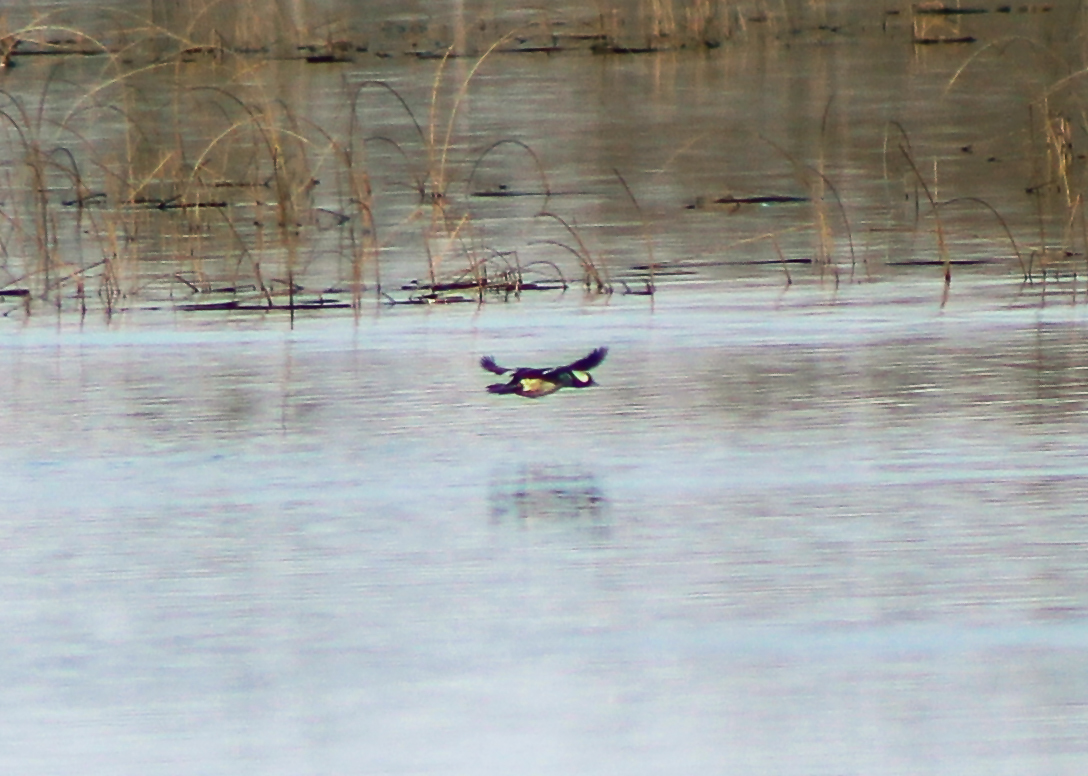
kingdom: Animalia
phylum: Chordata
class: Aves
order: Anseriformes
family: Anatidae
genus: Bucephala
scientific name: Bucephala albeola
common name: Bufflehead
